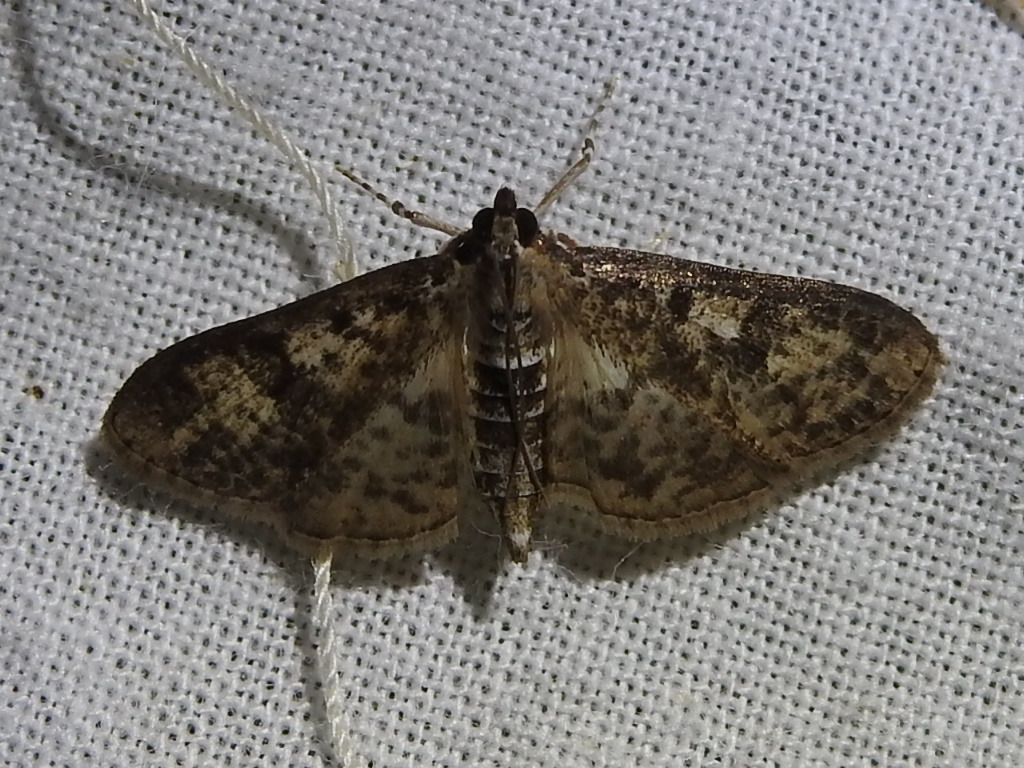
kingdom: Animalia
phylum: Arthropoda
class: Insecta
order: Lepidoptera
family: Crambidae
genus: Palpita
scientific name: Palpita magniferalis
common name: Splendid palpita moth
